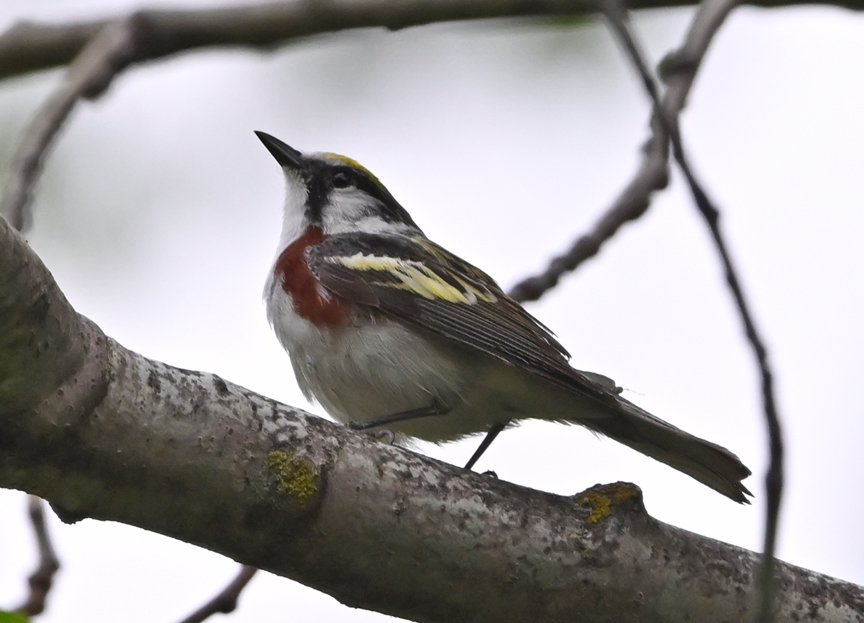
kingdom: Animalia
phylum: Chordata
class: Aves
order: Passeriformes
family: Parulidae
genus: Setophaga
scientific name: Setophaga pensylvanica
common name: Chestnut-sided warbler
